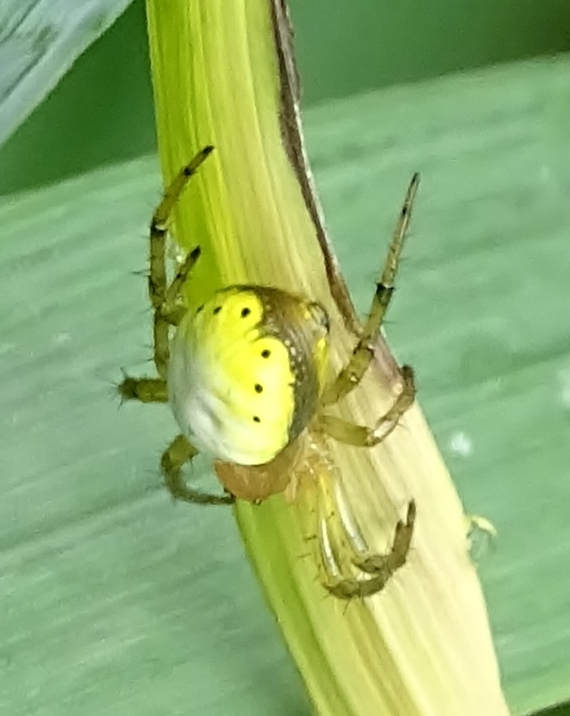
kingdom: Animalia
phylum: Arthropoda
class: Arachnida
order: Araneae
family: Araneidae
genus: Araniella
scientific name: Araniella displicata
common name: Sixspotted orb weaver
